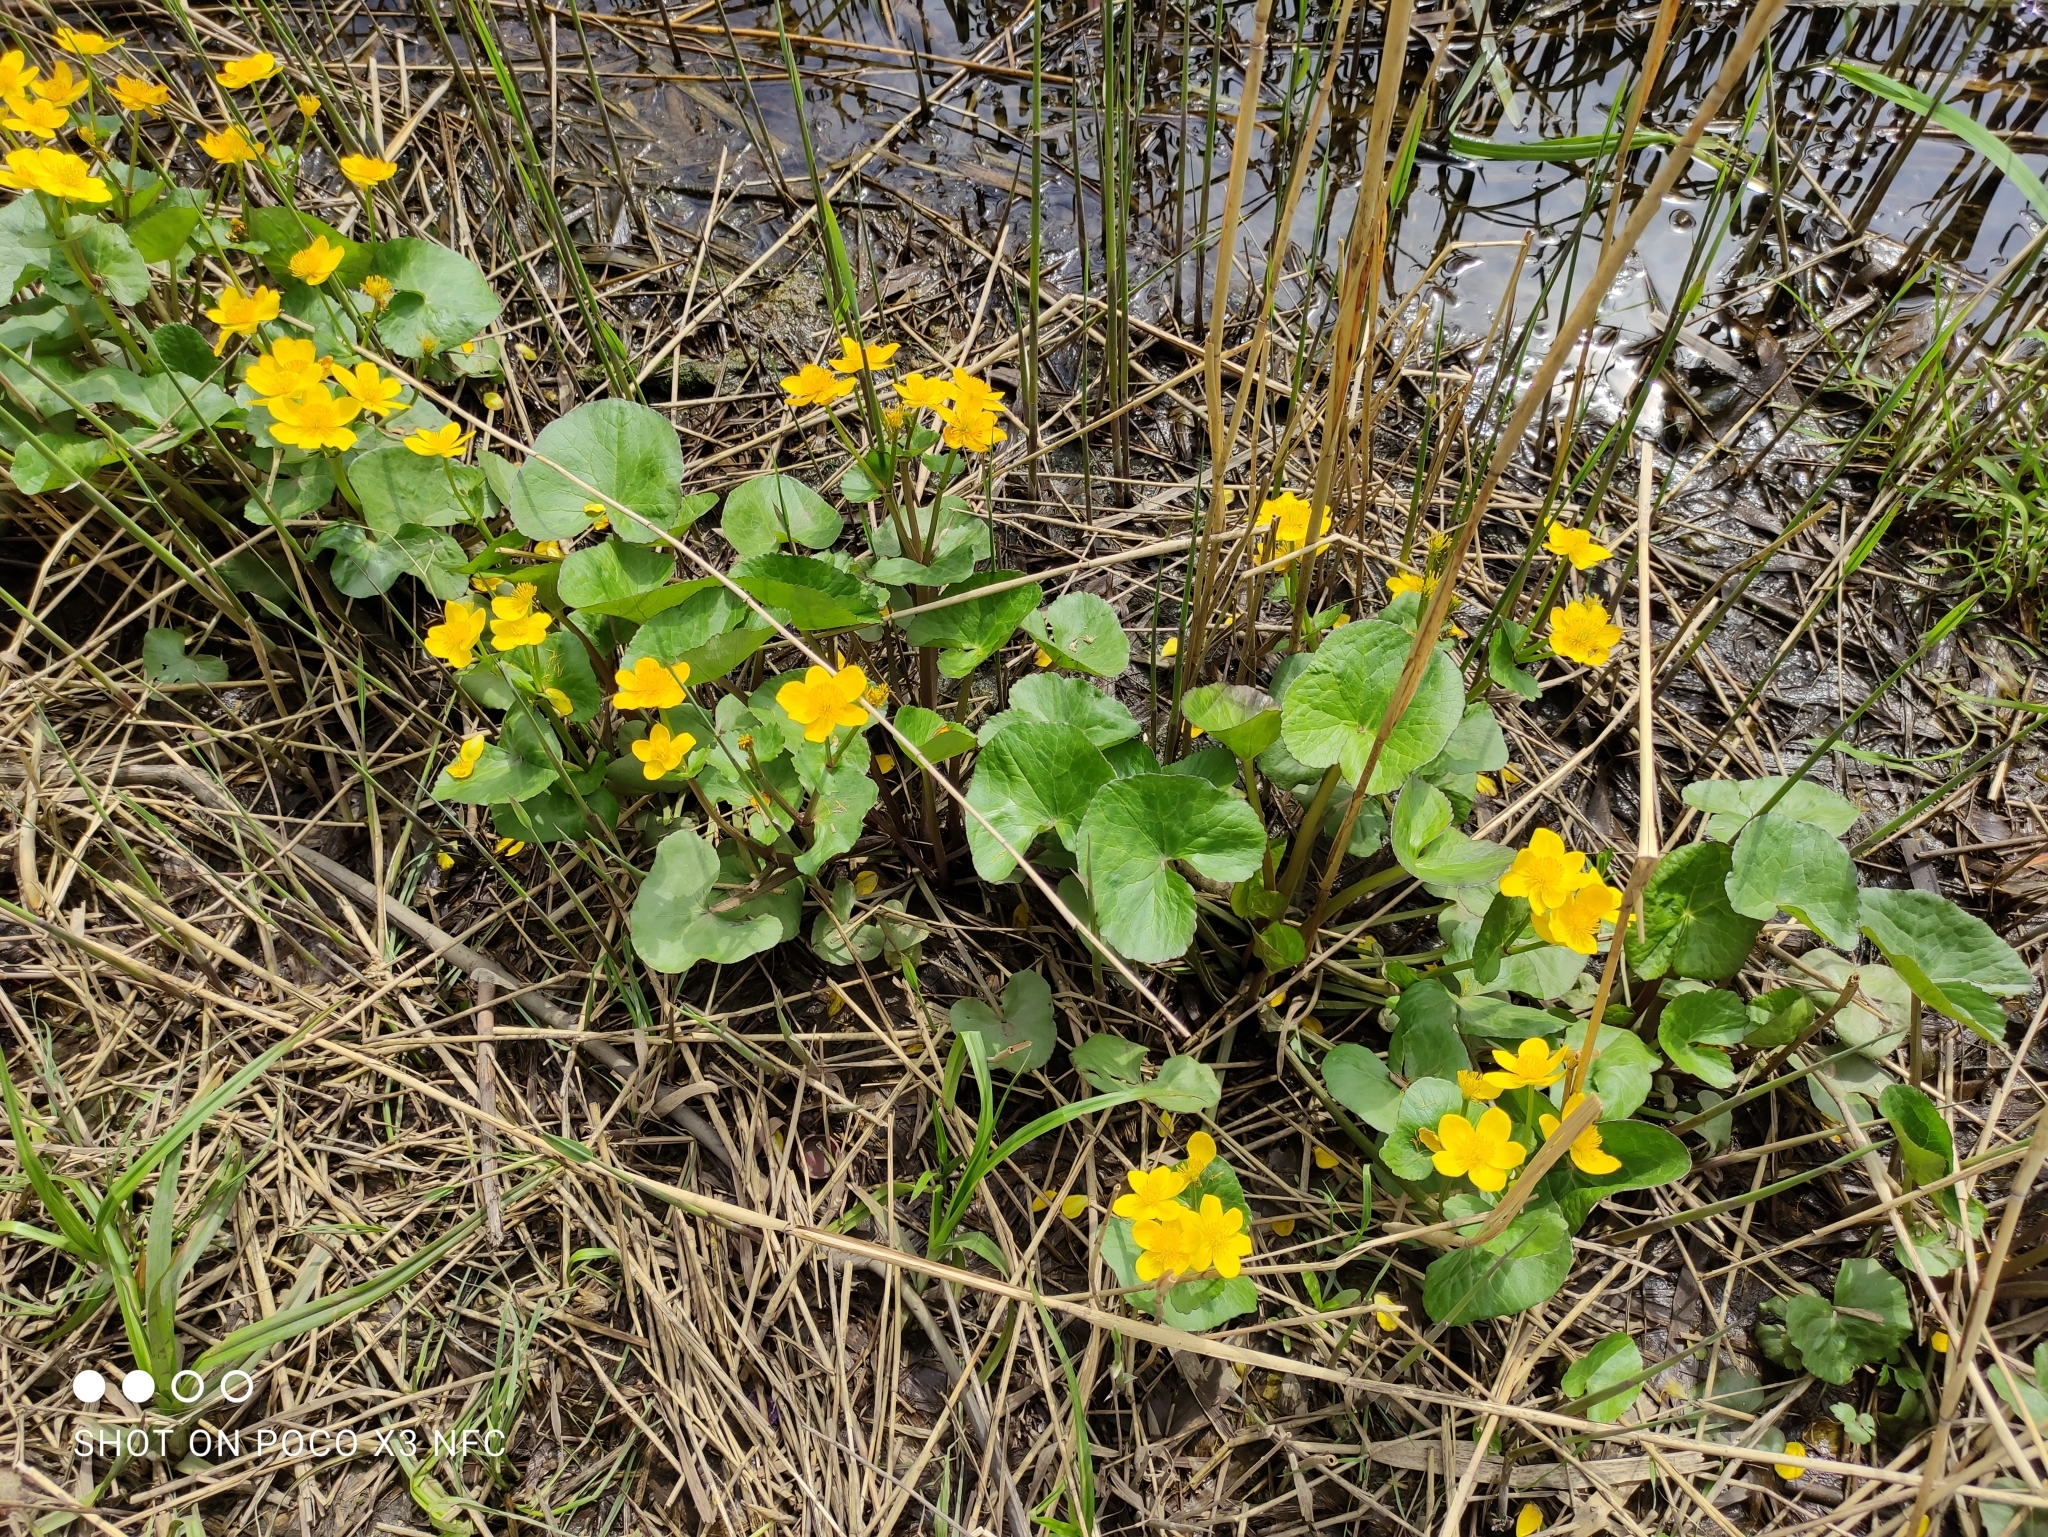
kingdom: Plantae
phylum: Tracheophyta
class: Magnoliopsida
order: Ranunculales
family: Ranunculaceae
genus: Caltha
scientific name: Caltha palustris
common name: Marsh marigold
